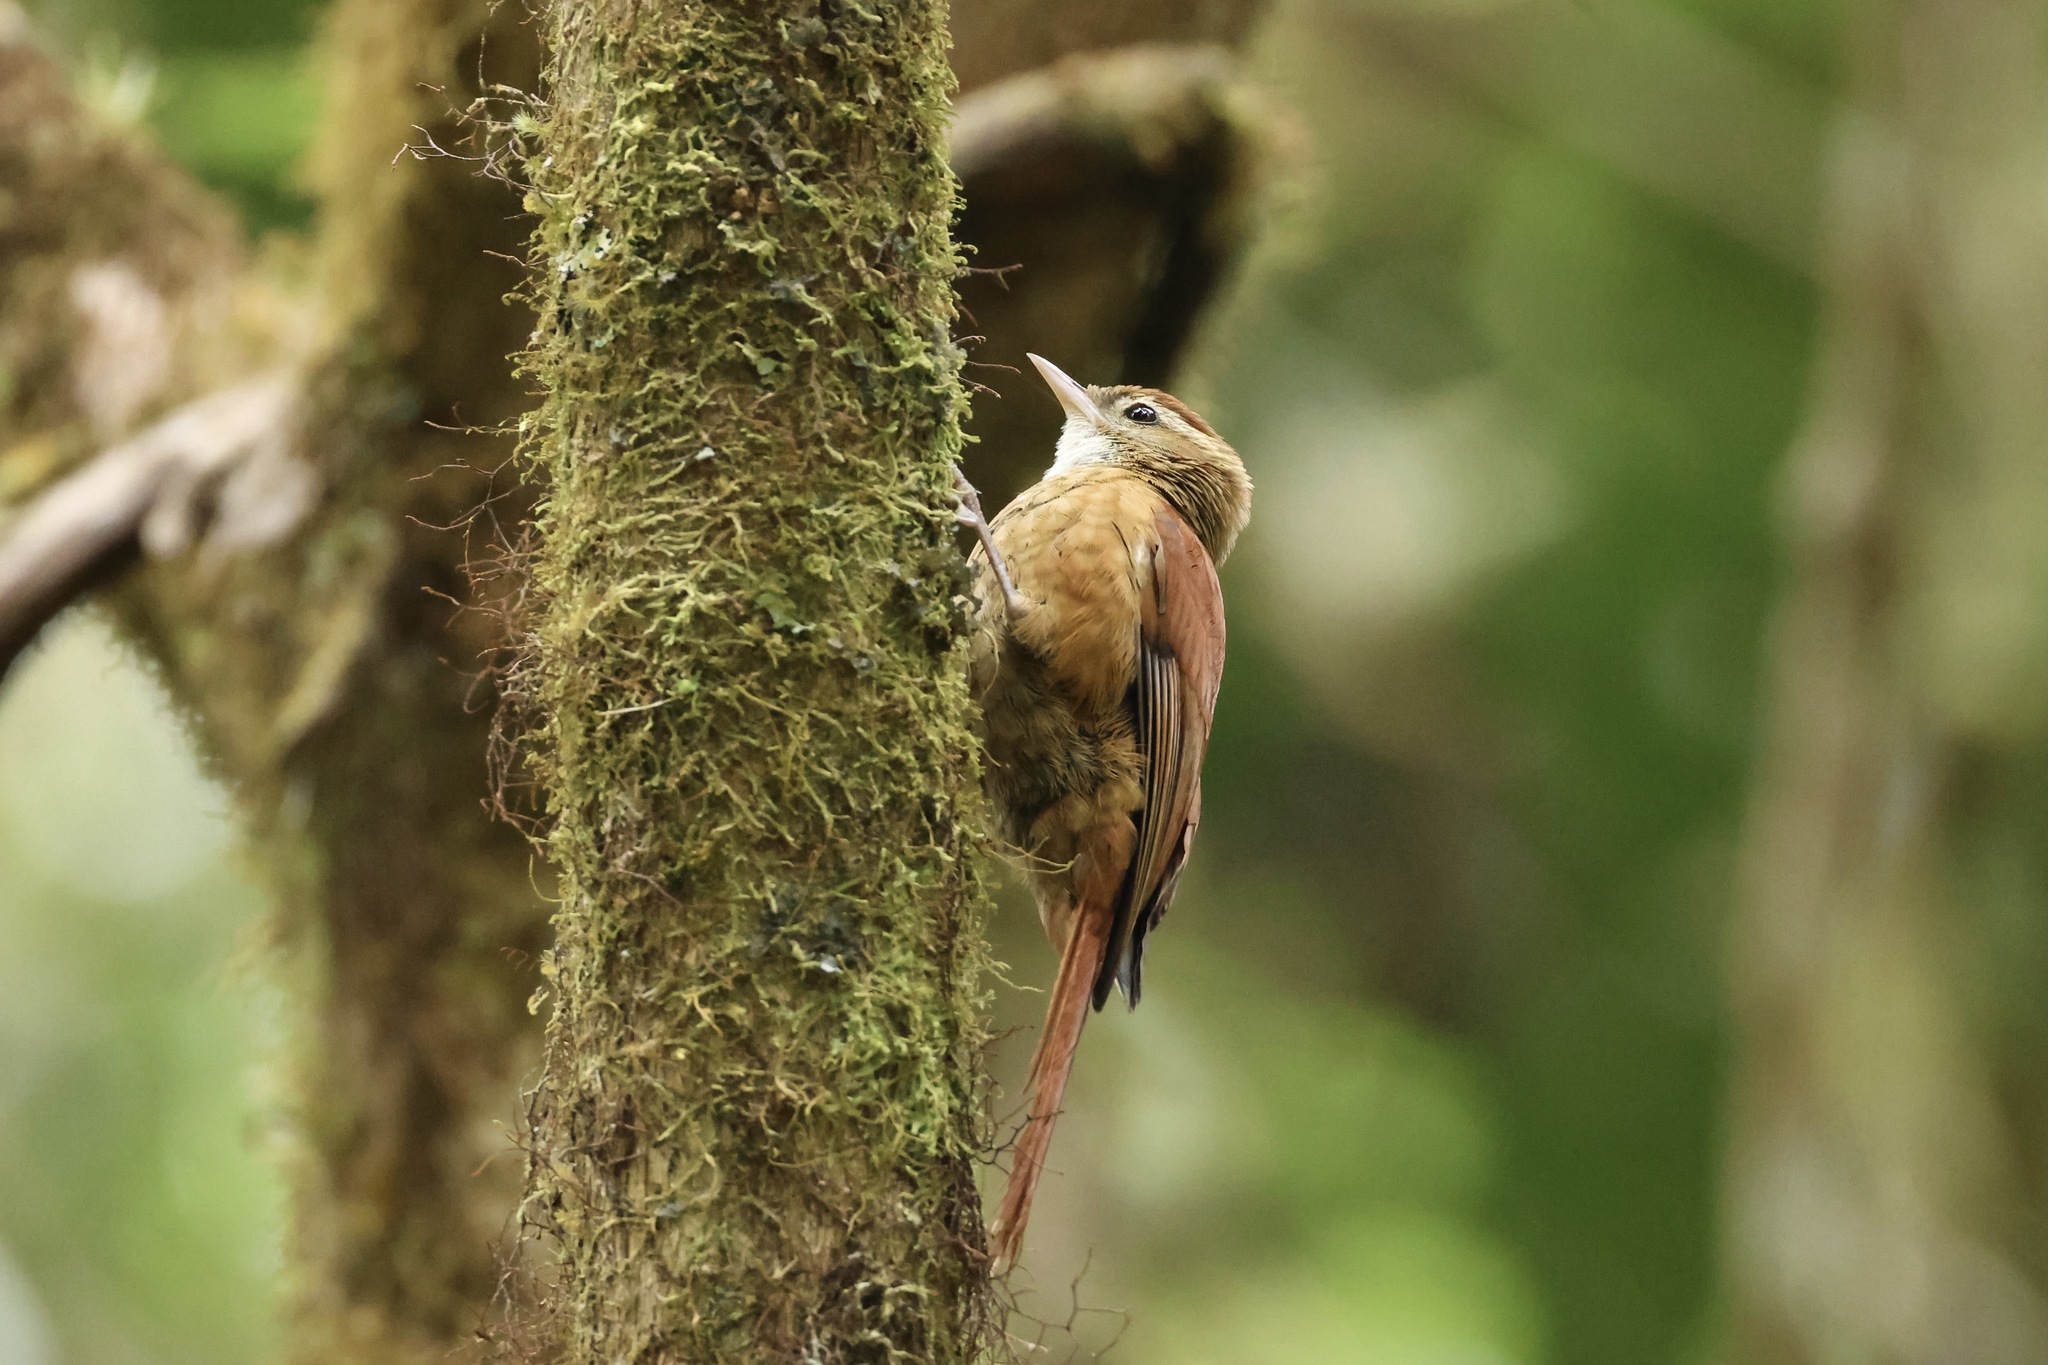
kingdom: Animalia
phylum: Chordata
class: Aves
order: Passeriformes
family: Furnariidae
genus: Margarornis
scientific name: Margarornis rubiginosus
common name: Ruddy treerunner
